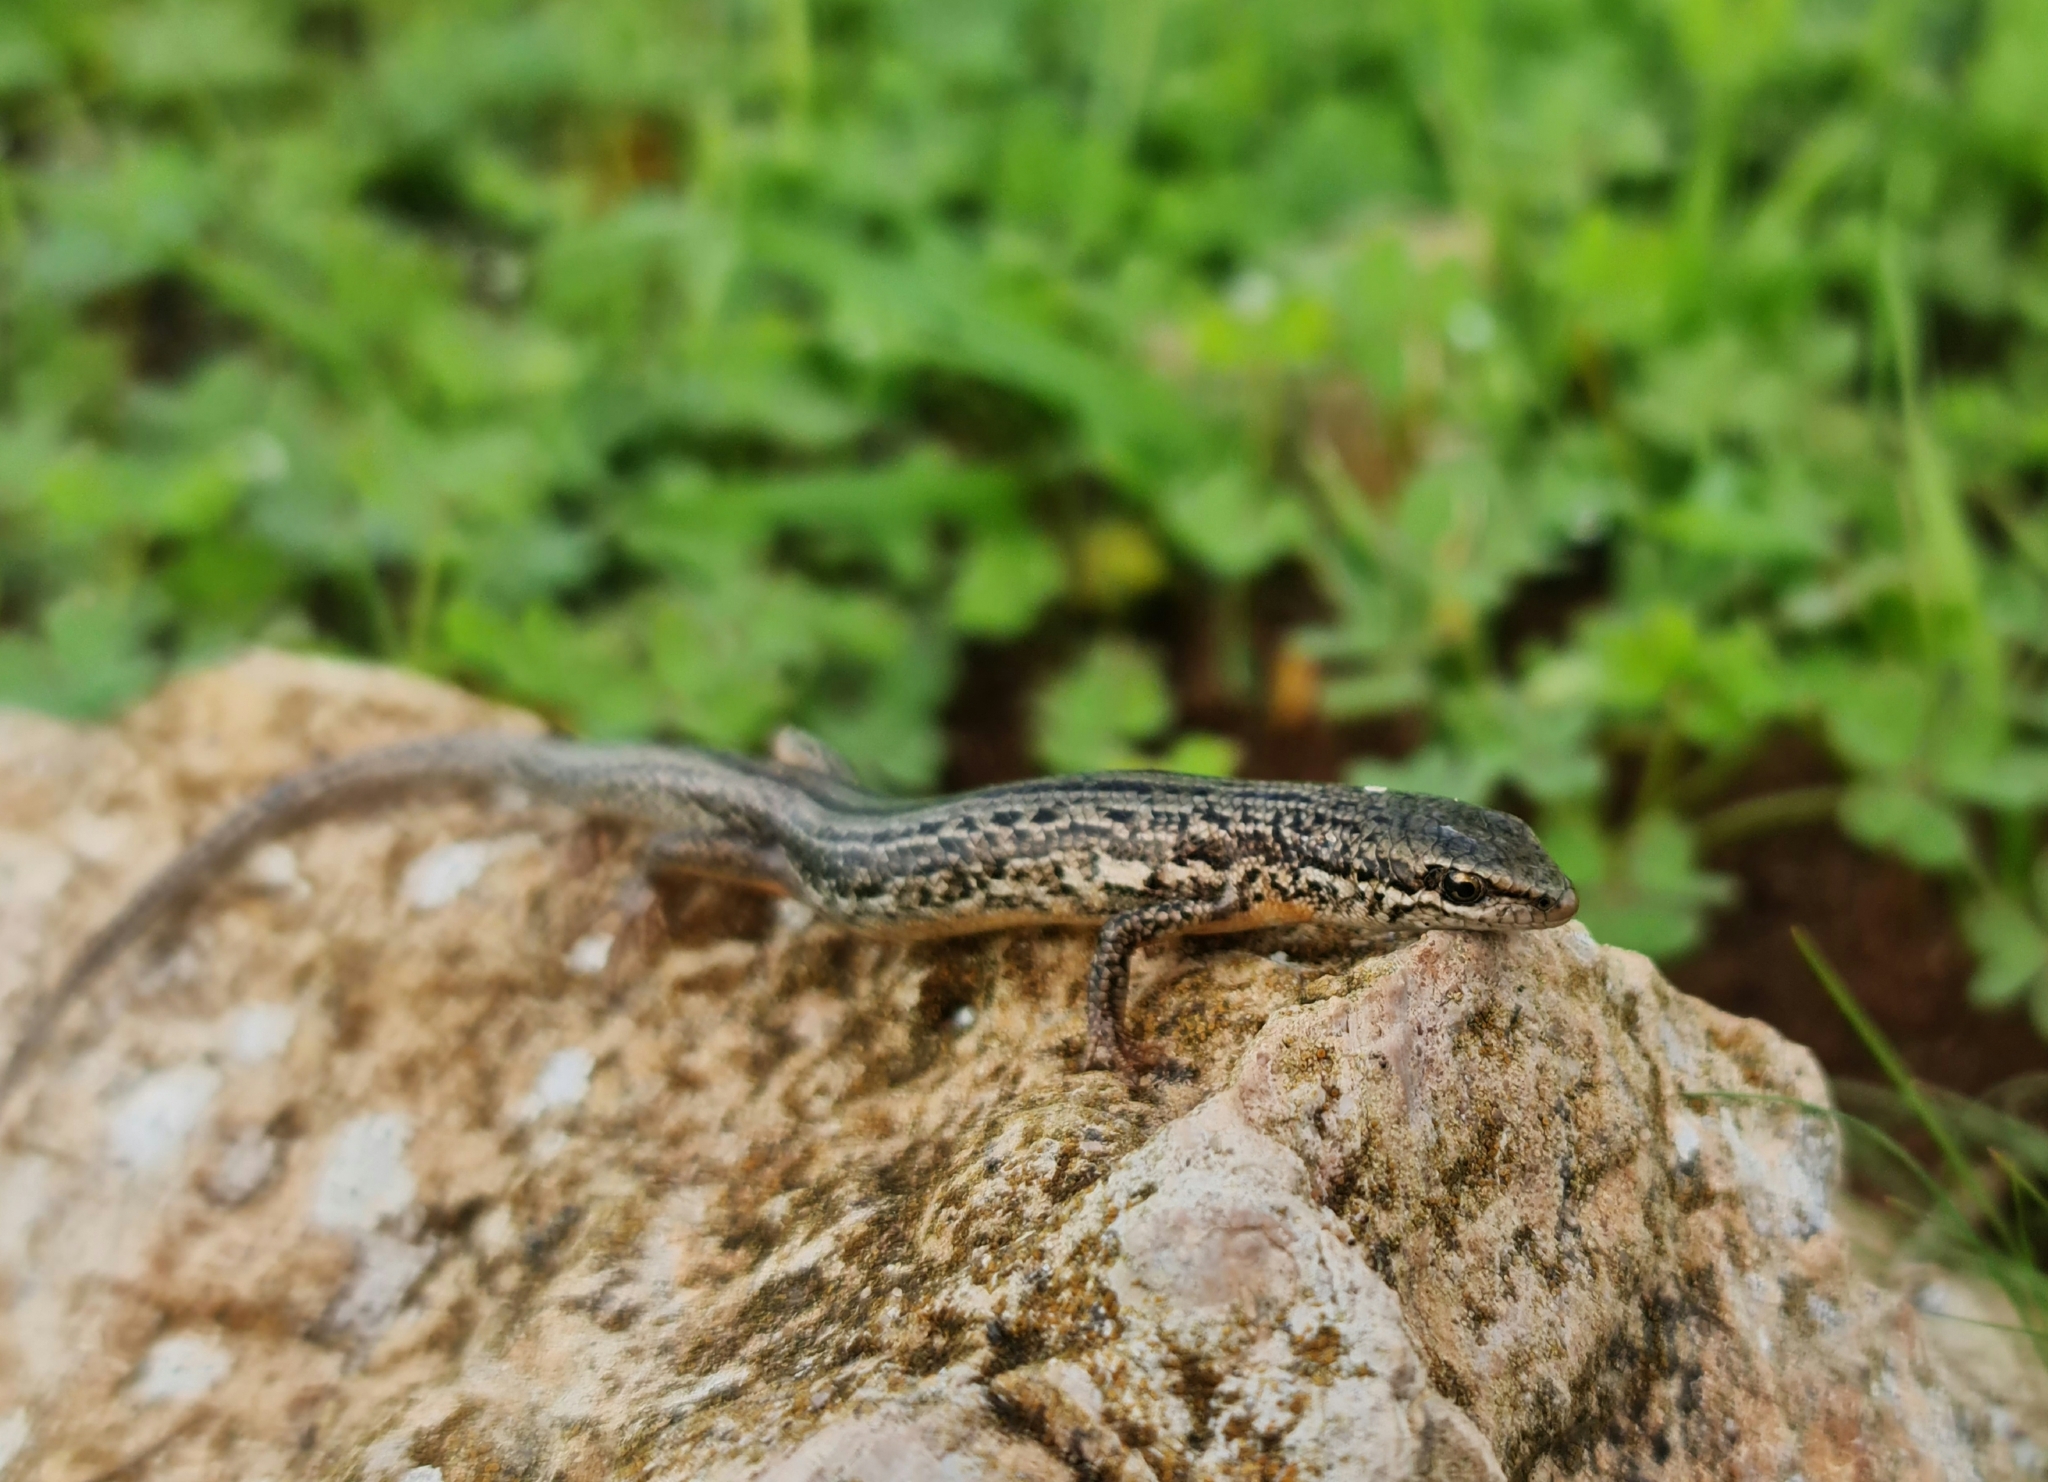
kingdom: Animalia
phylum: Chordata
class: Squamata
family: Scincidae
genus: Morethia
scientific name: Morethia adelaidensis
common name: Saltbush morethia skink
